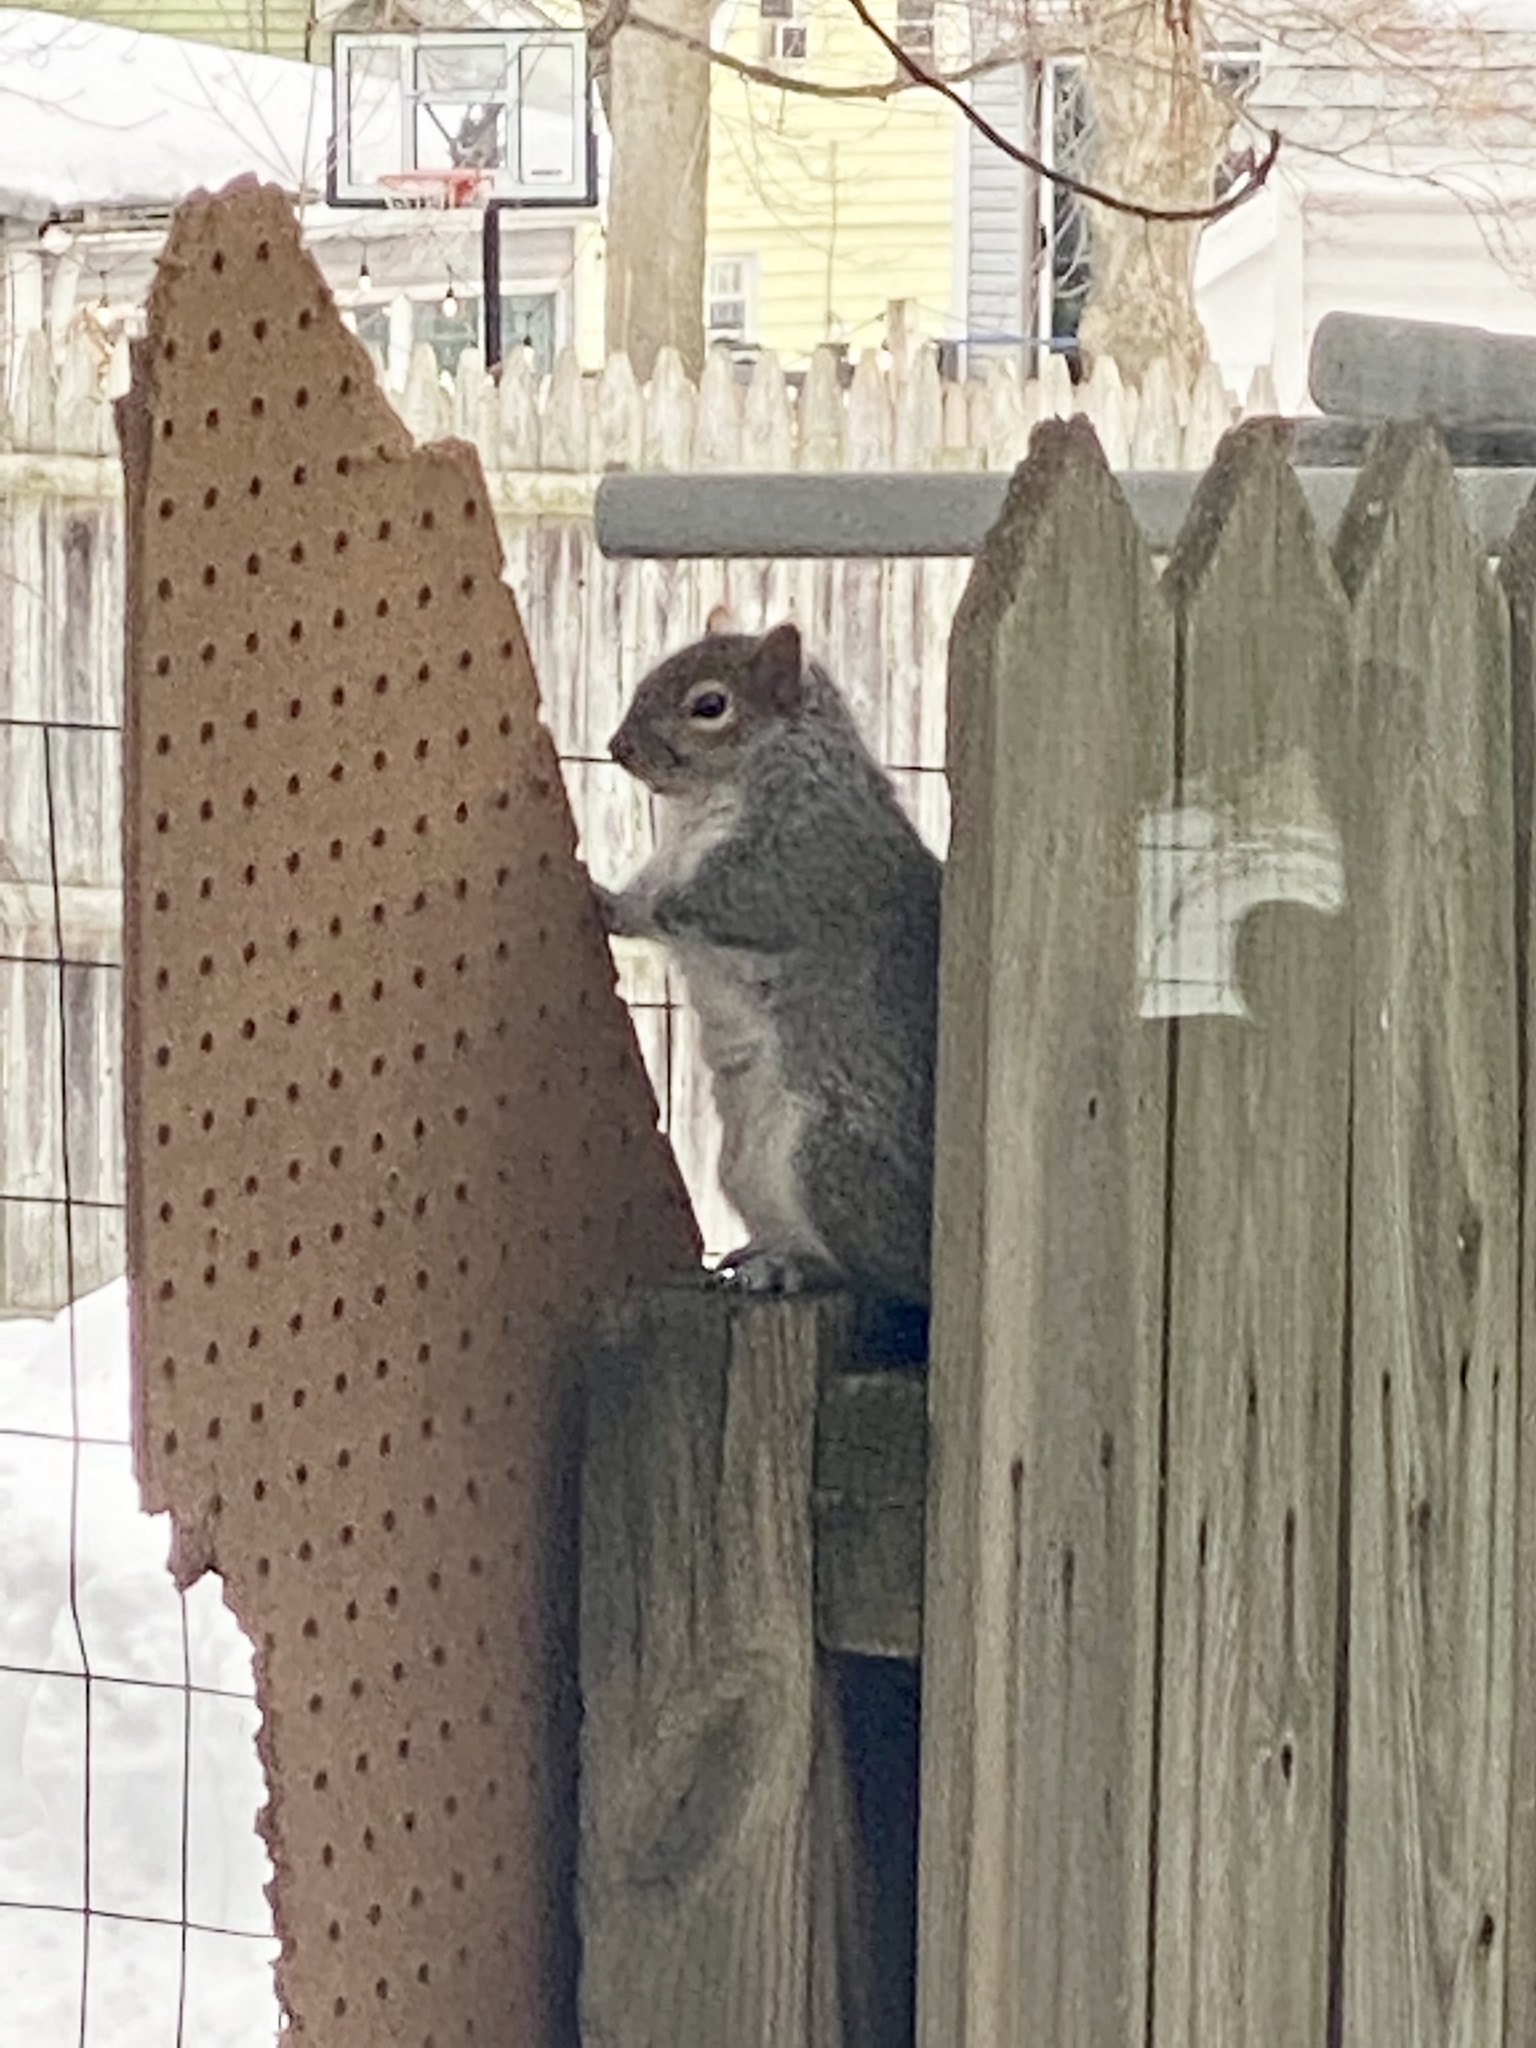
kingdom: Animalia
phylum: Chordata
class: Mammalia
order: Rodentia
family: Sciuridae
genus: Sciurus
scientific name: Sciurus carolinensis
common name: Eastern gray squirrel
